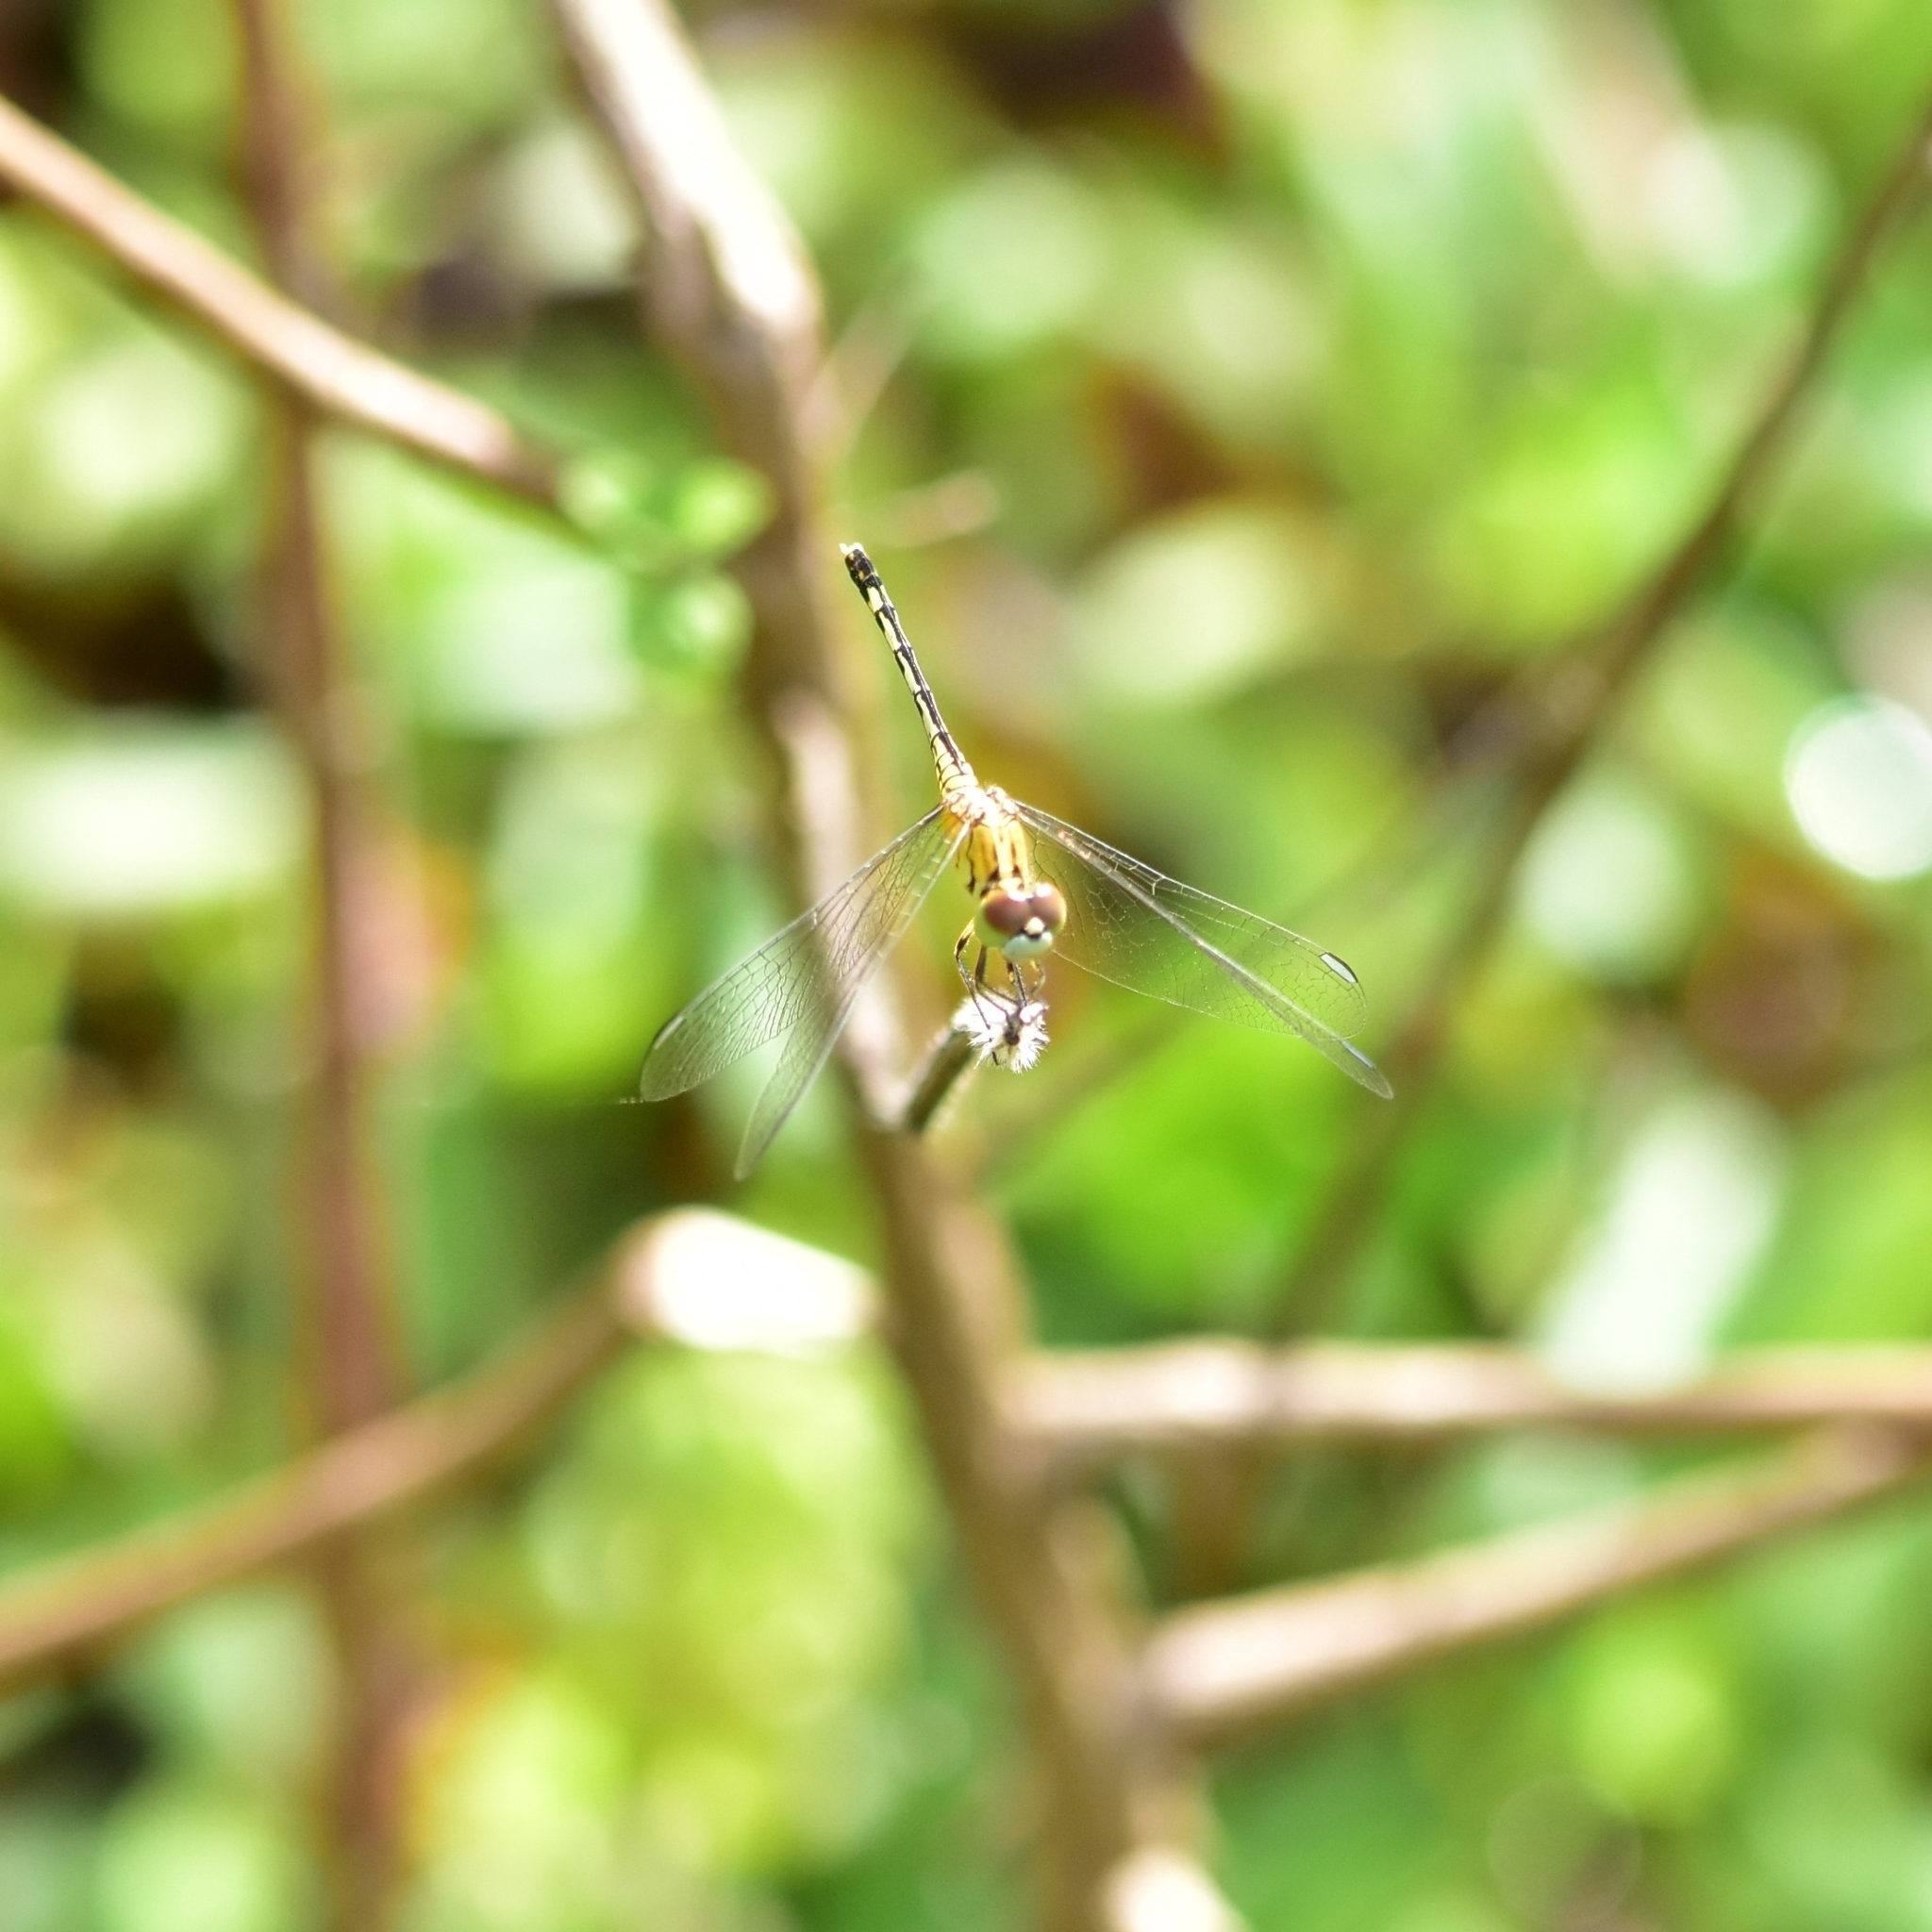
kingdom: Animalia
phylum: Arthropoda
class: Insecta
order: Odonata
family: Libellulidae
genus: Diplacodes
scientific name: Diplacodes trivialis
